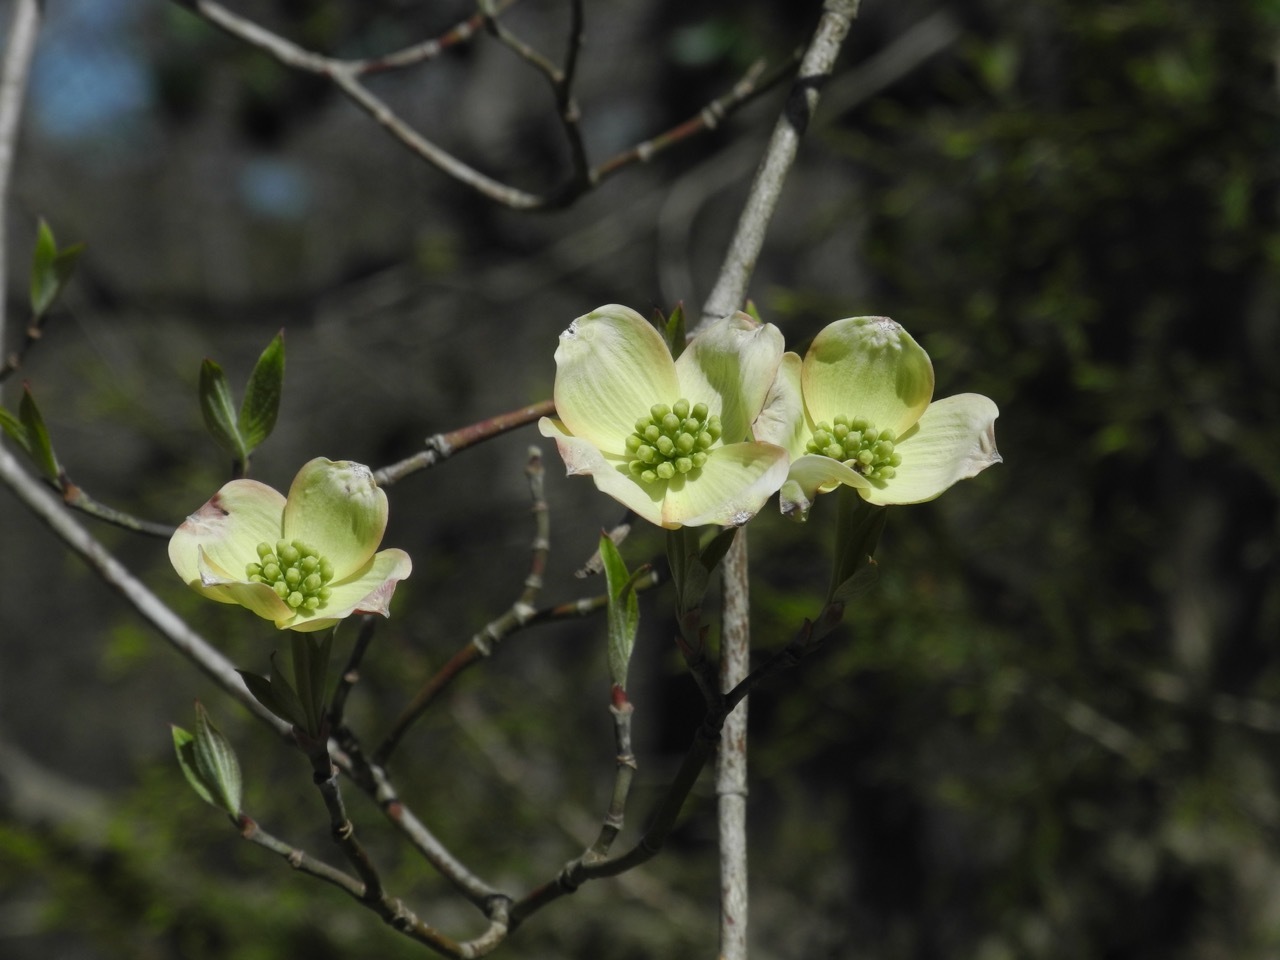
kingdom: Plantae
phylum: Tracheophyta
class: Magnoliopsida
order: Cornales
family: Cornaceae
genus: Cornus
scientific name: Cornus florida
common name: Flowering dogwood
